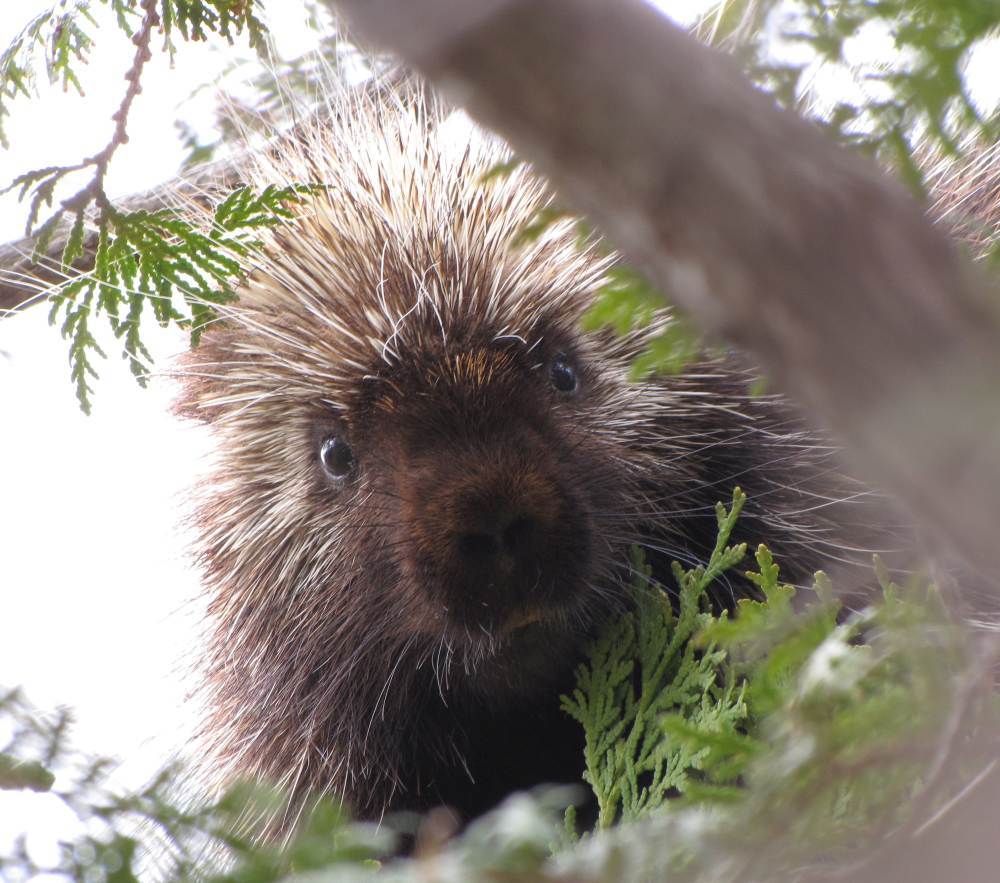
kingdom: Animalia
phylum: Chordata
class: Mammalia
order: Rodentia
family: Erethizontidae
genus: Erethizon
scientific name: Erethizon dorsatus
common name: North american porcupine
